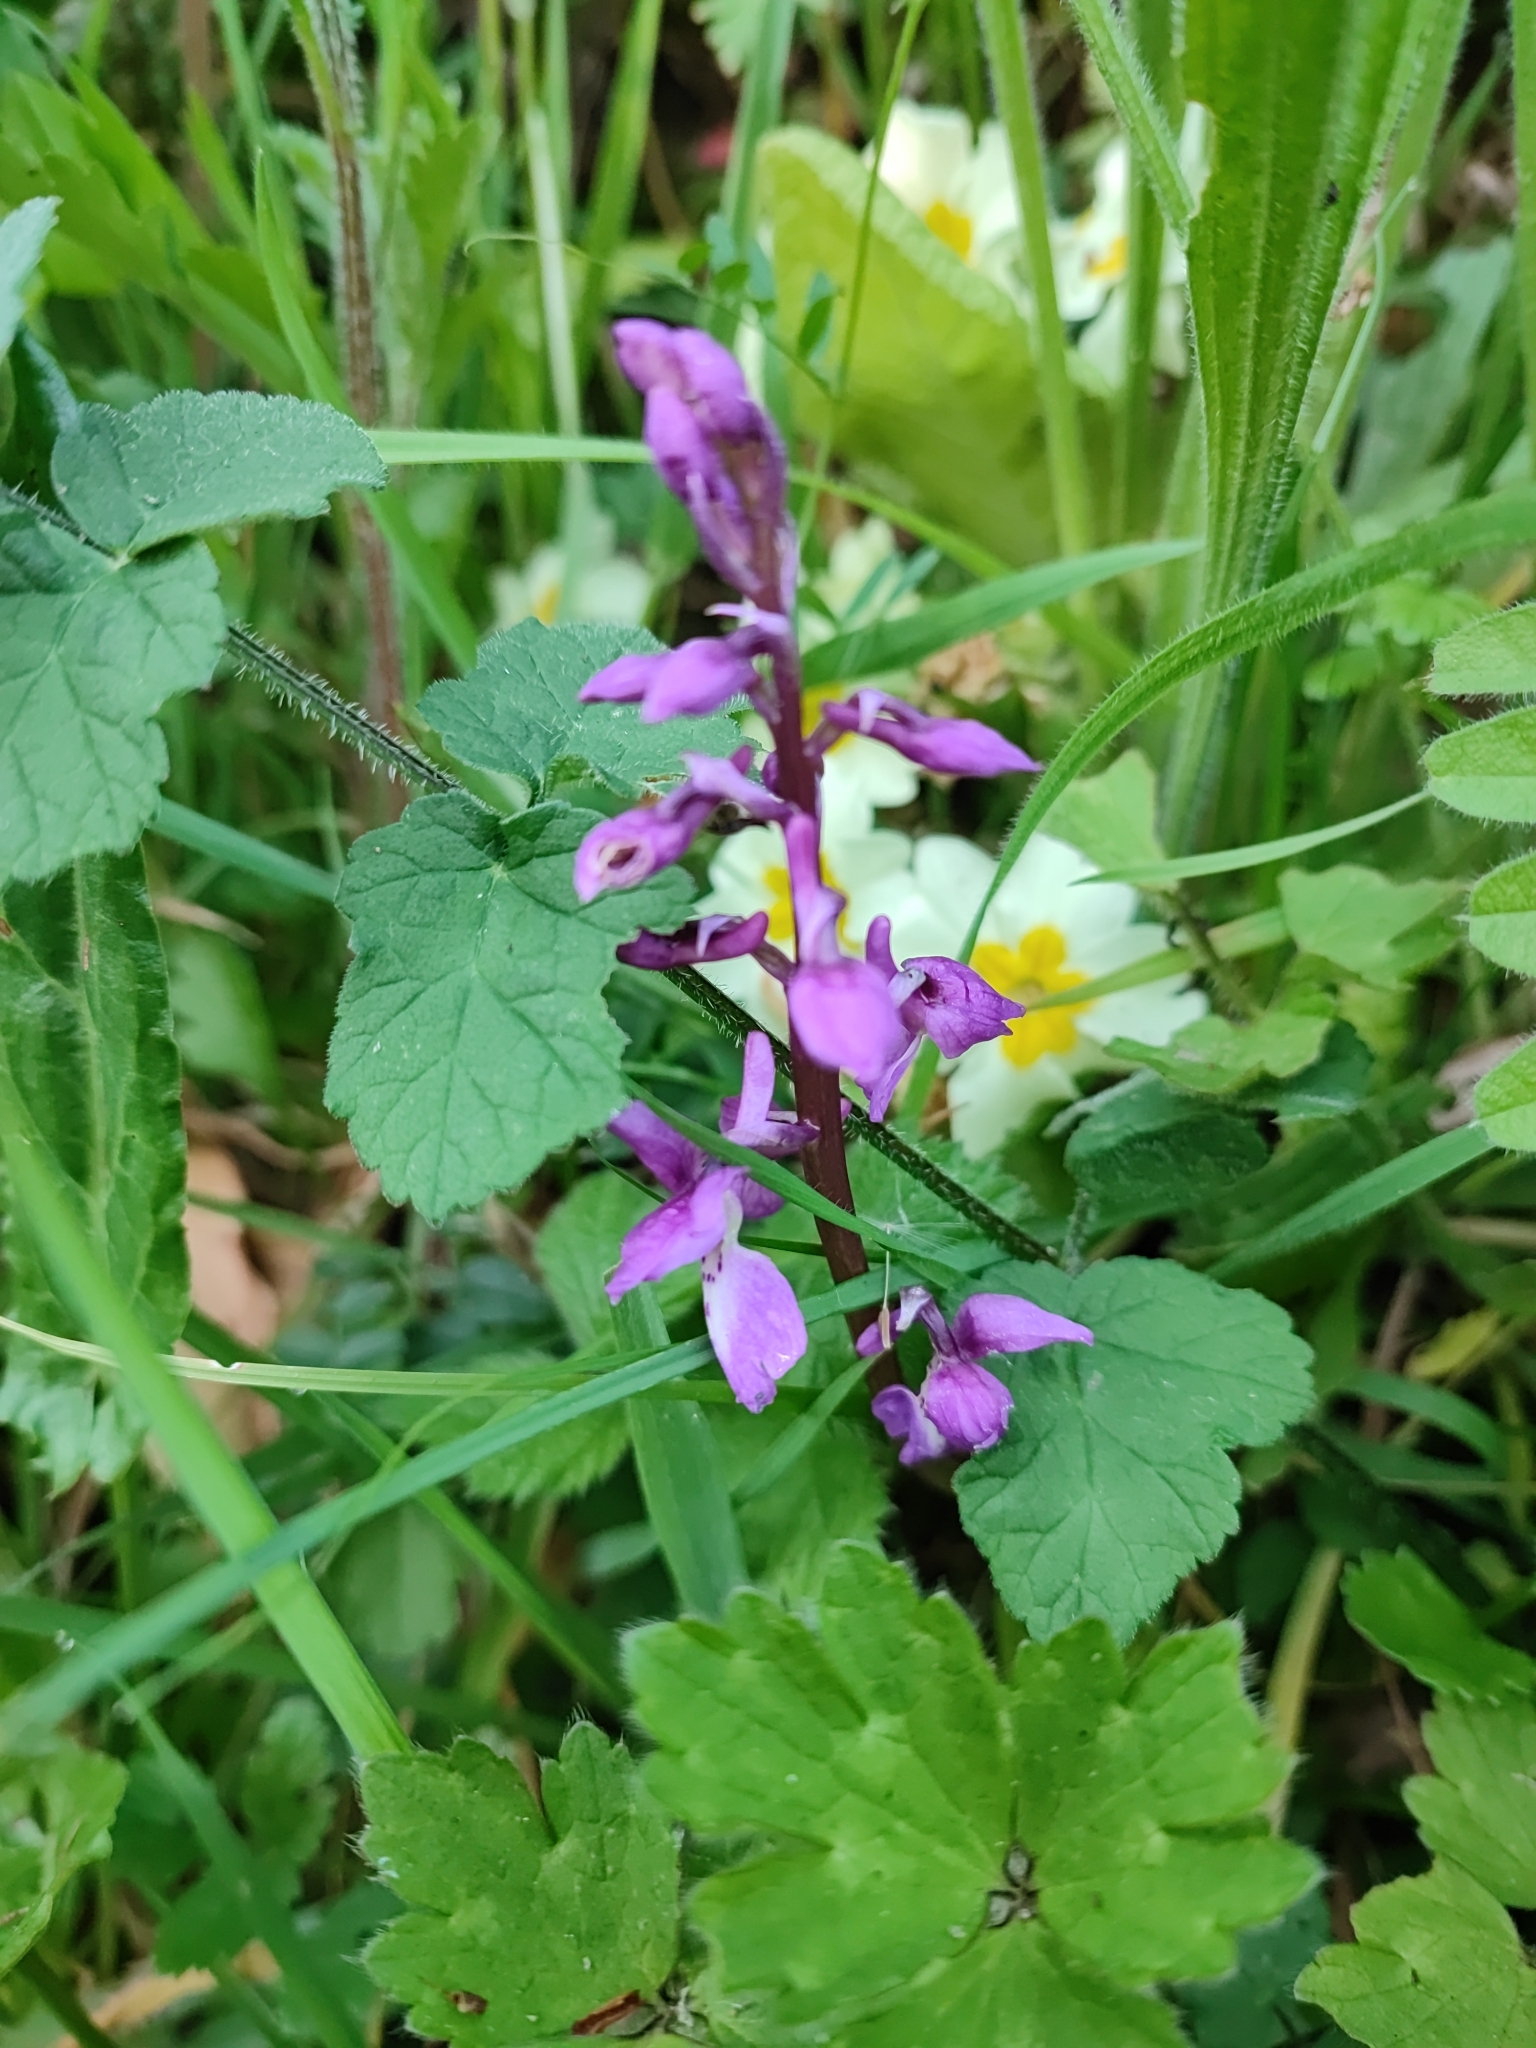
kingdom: Plantae
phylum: Tracheophyta
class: Liliopsida
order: Asparagales
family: Orchidaceae
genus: Orchis
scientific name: Orchis mascula
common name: Early-purple orchid
